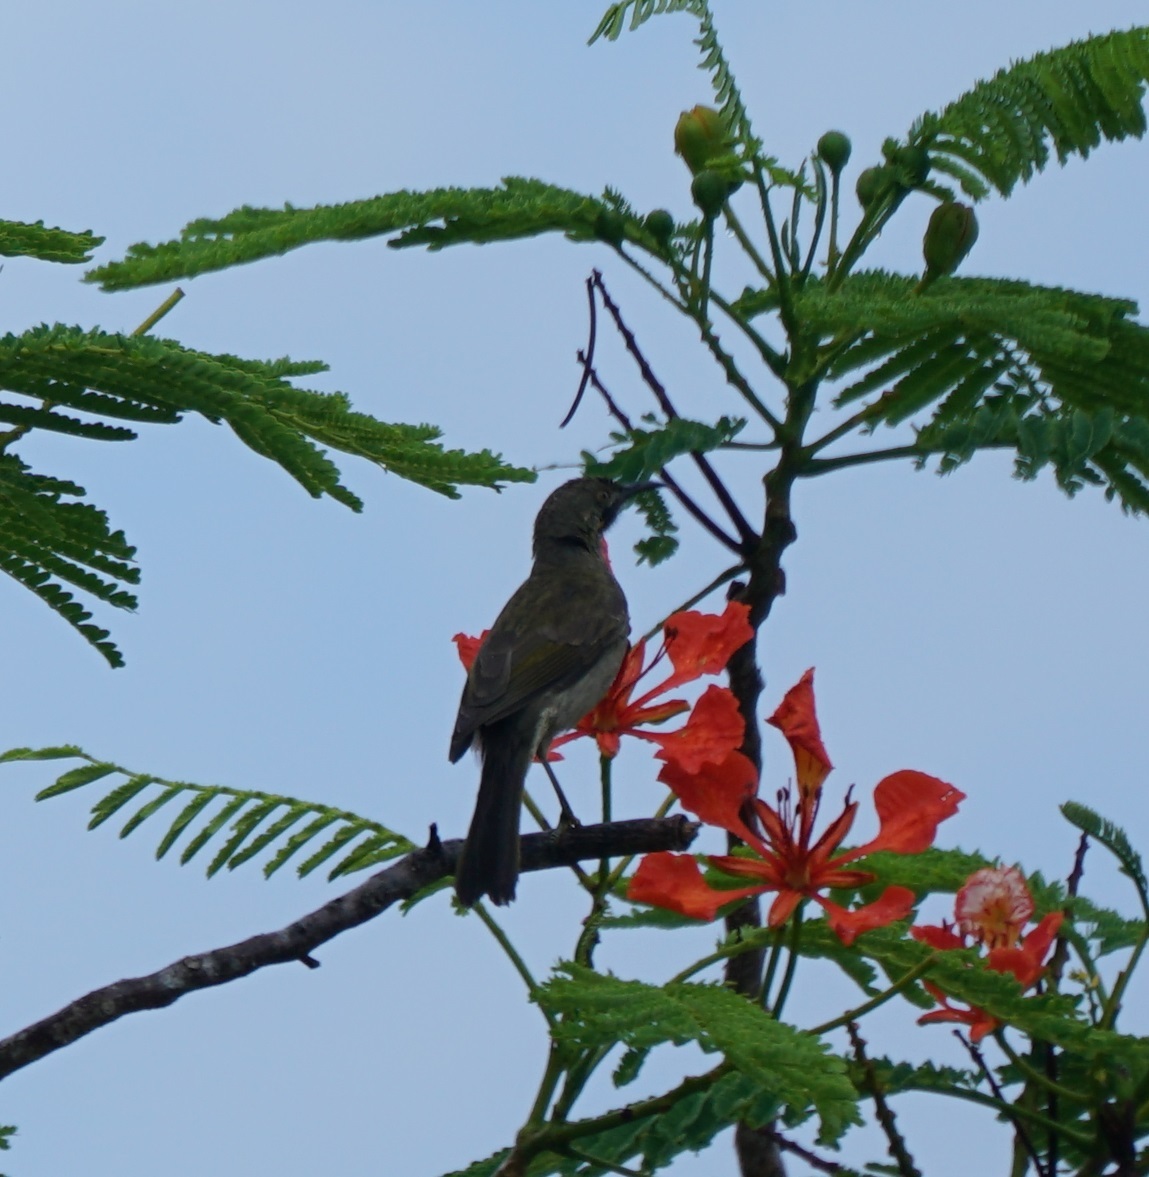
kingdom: Animalia
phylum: Chordata
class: Aves
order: Passeriformes
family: Meliphagidae
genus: Foulehaio
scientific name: Foulehaio procerior
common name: Kikau
